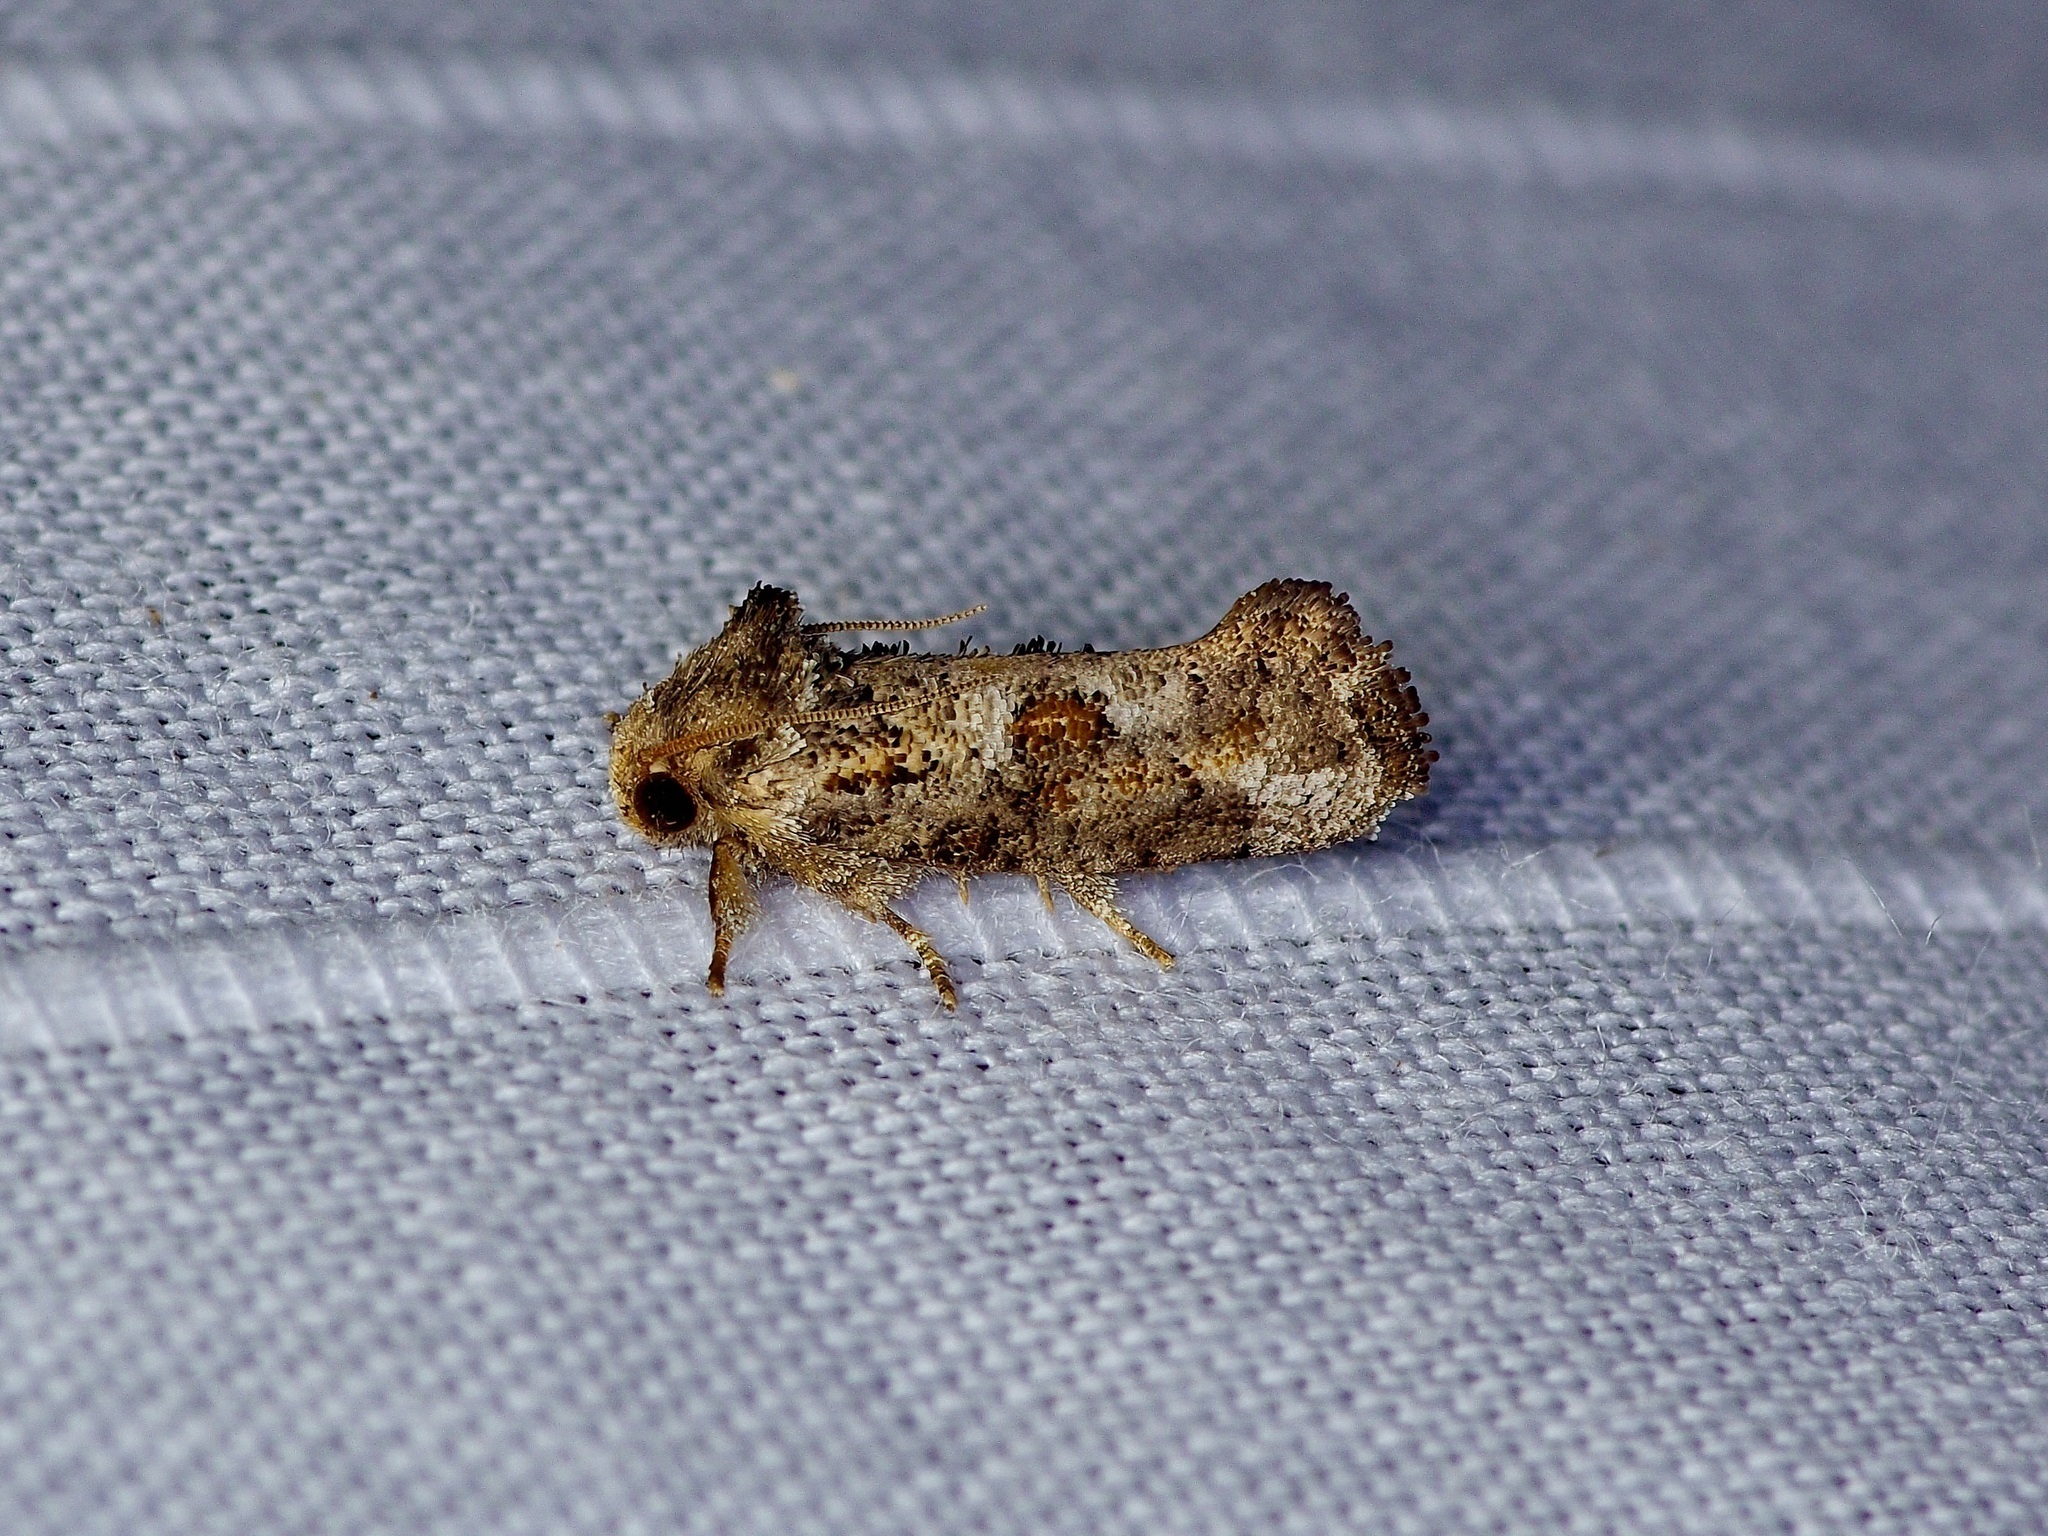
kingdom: Animalia
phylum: Arthropoda
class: Insecta
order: Lepidoptera
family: Tineidae
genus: Acrolophus
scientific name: Acrolophus piger
